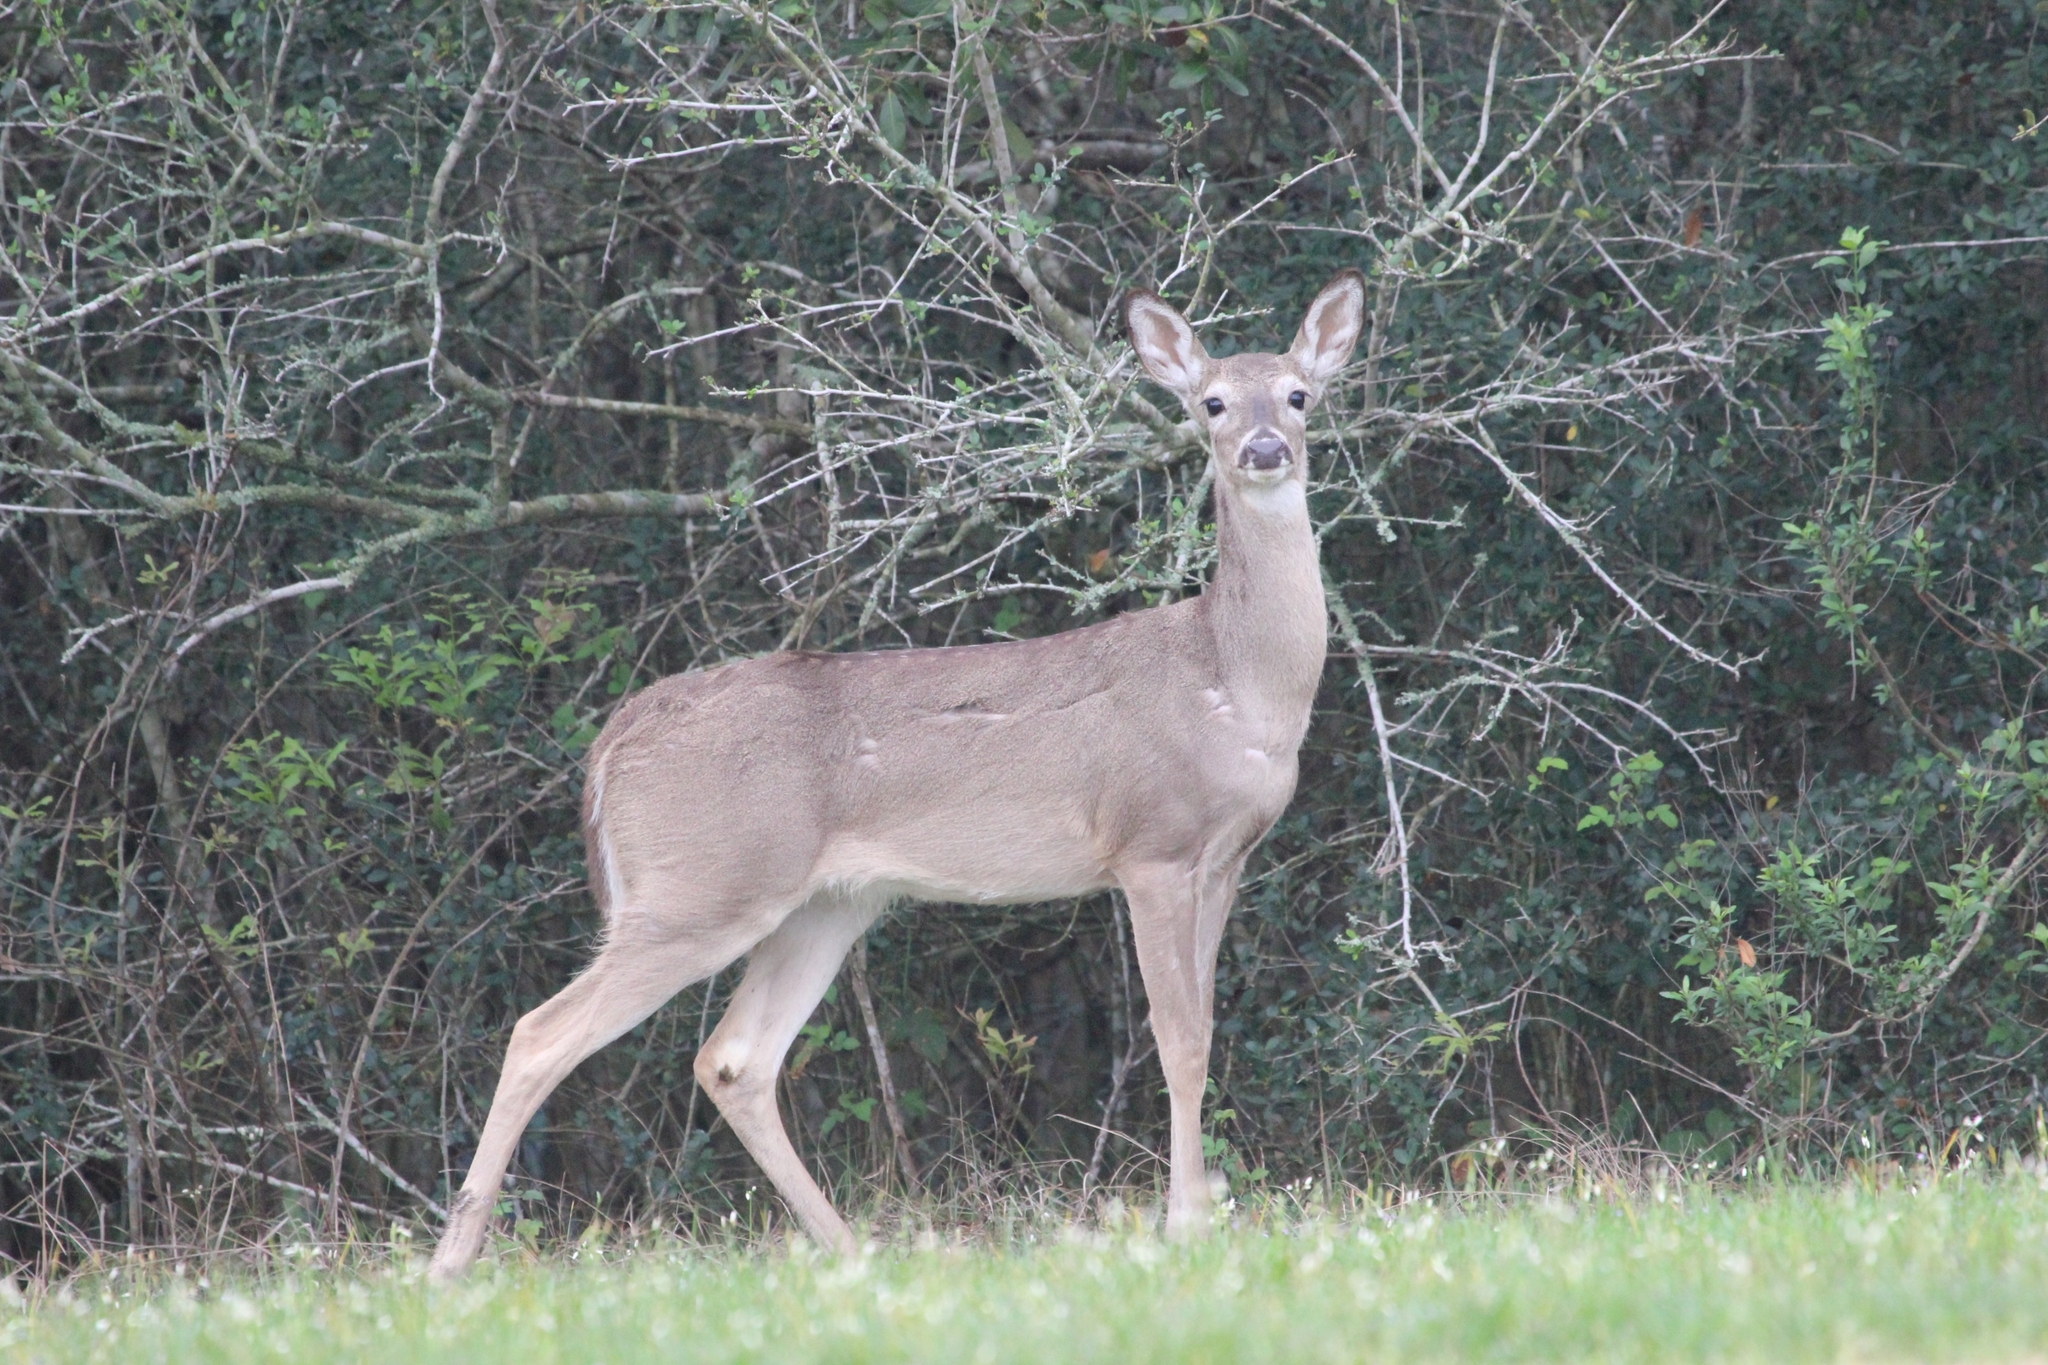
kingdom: Animalia
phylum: Chordata
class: Mammalia
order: Artiodactyla
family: Cervidae
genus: Odocoileus
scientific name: Odocoileus virginianus
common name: White-tailed deer
